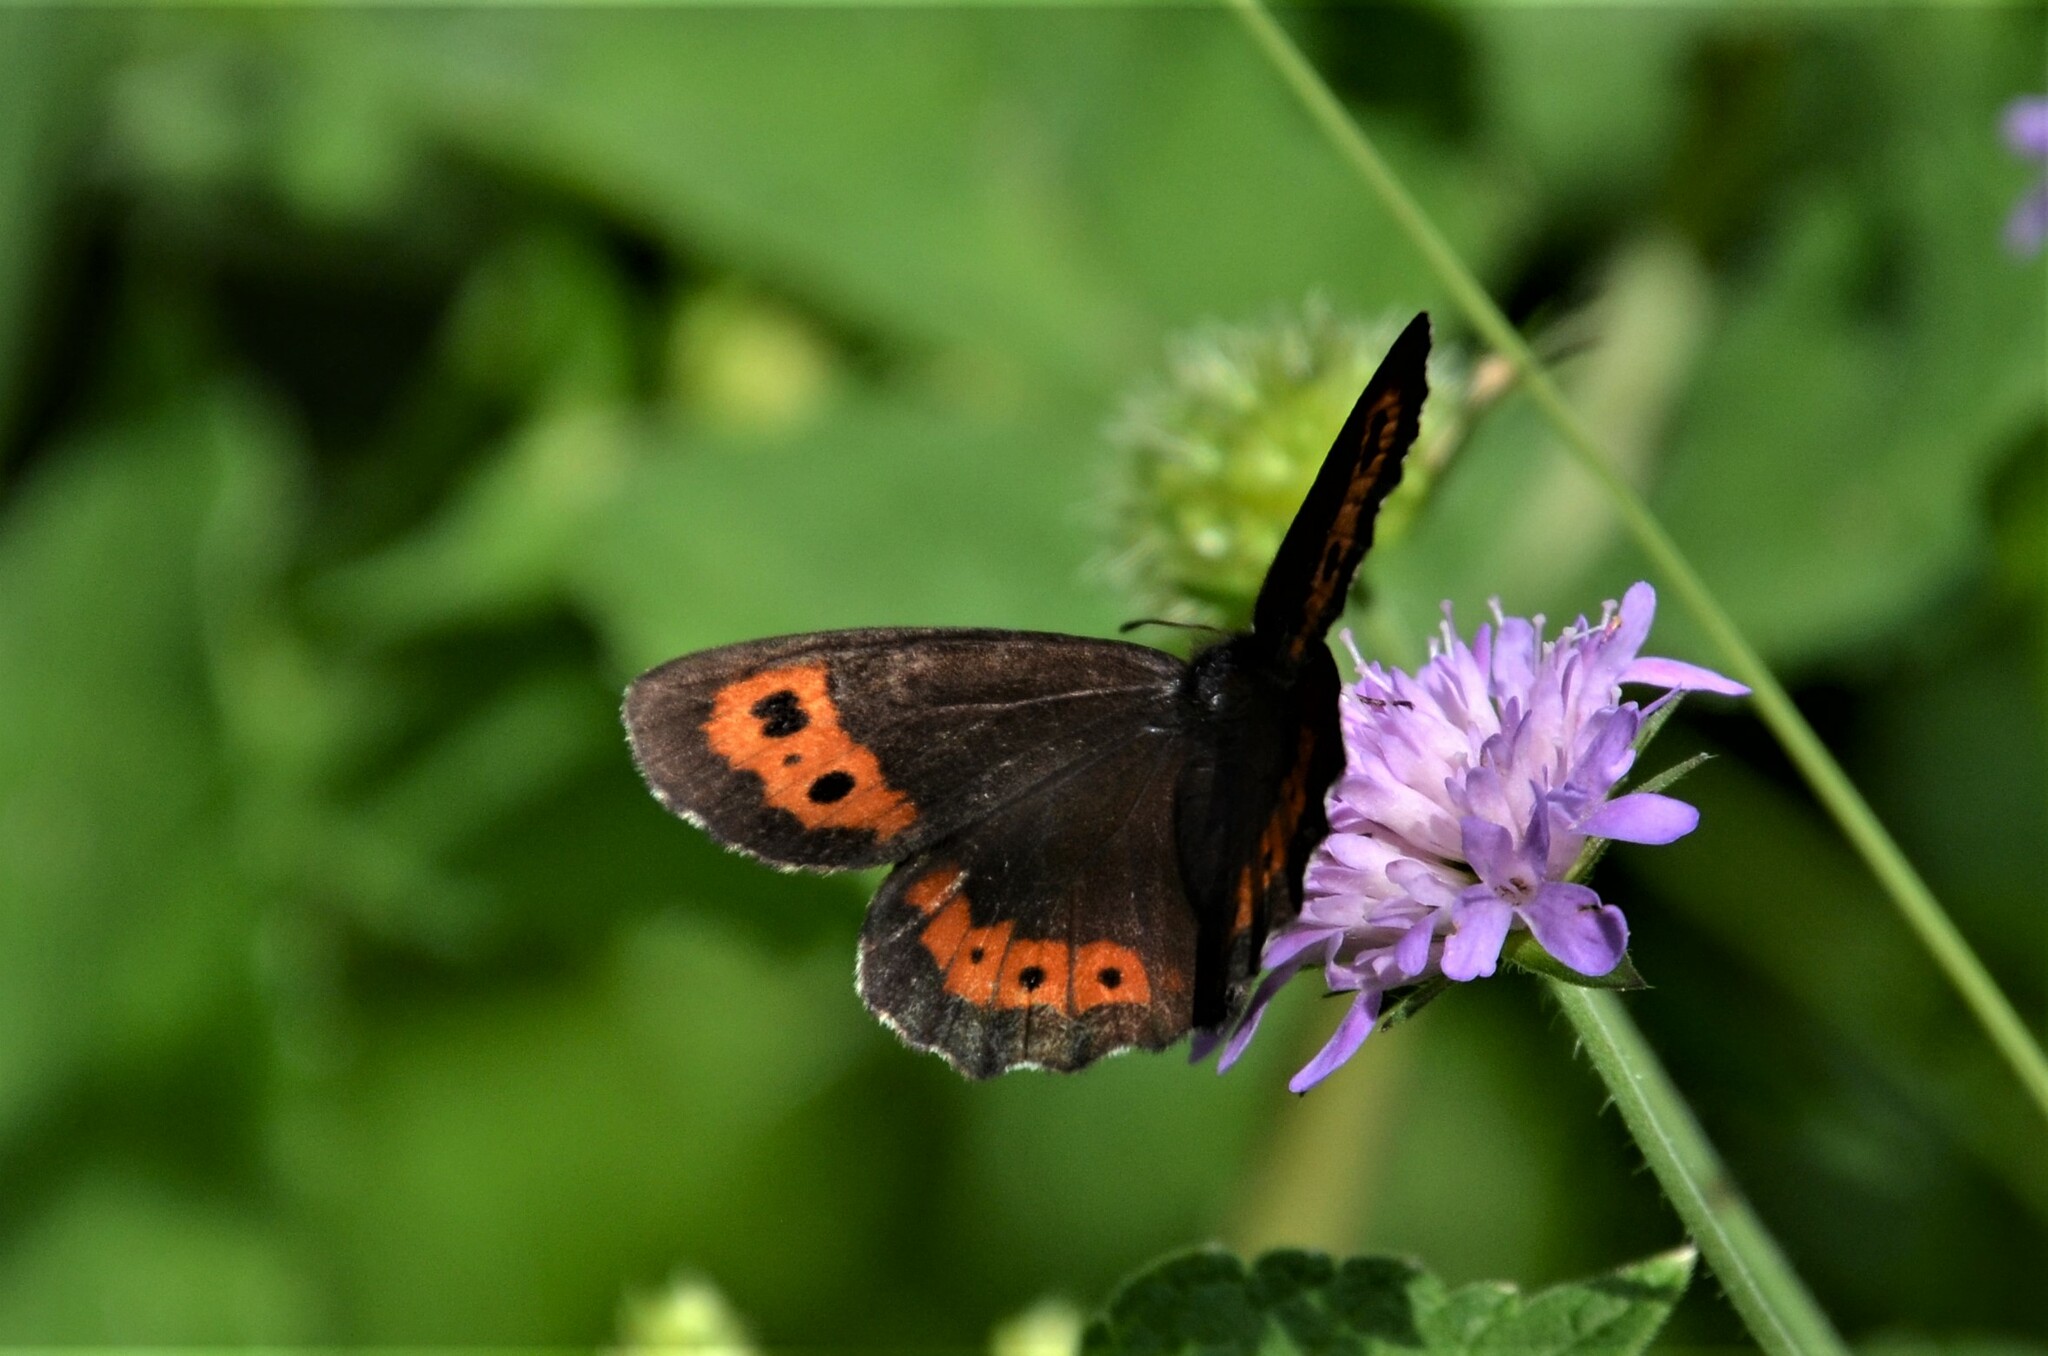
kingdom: Animalia
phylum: Arthropoda
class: Insecta
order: Lepidoptera
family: Nymphalidae
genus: Erebia
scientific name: Erebia ligea
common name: Arran brown
